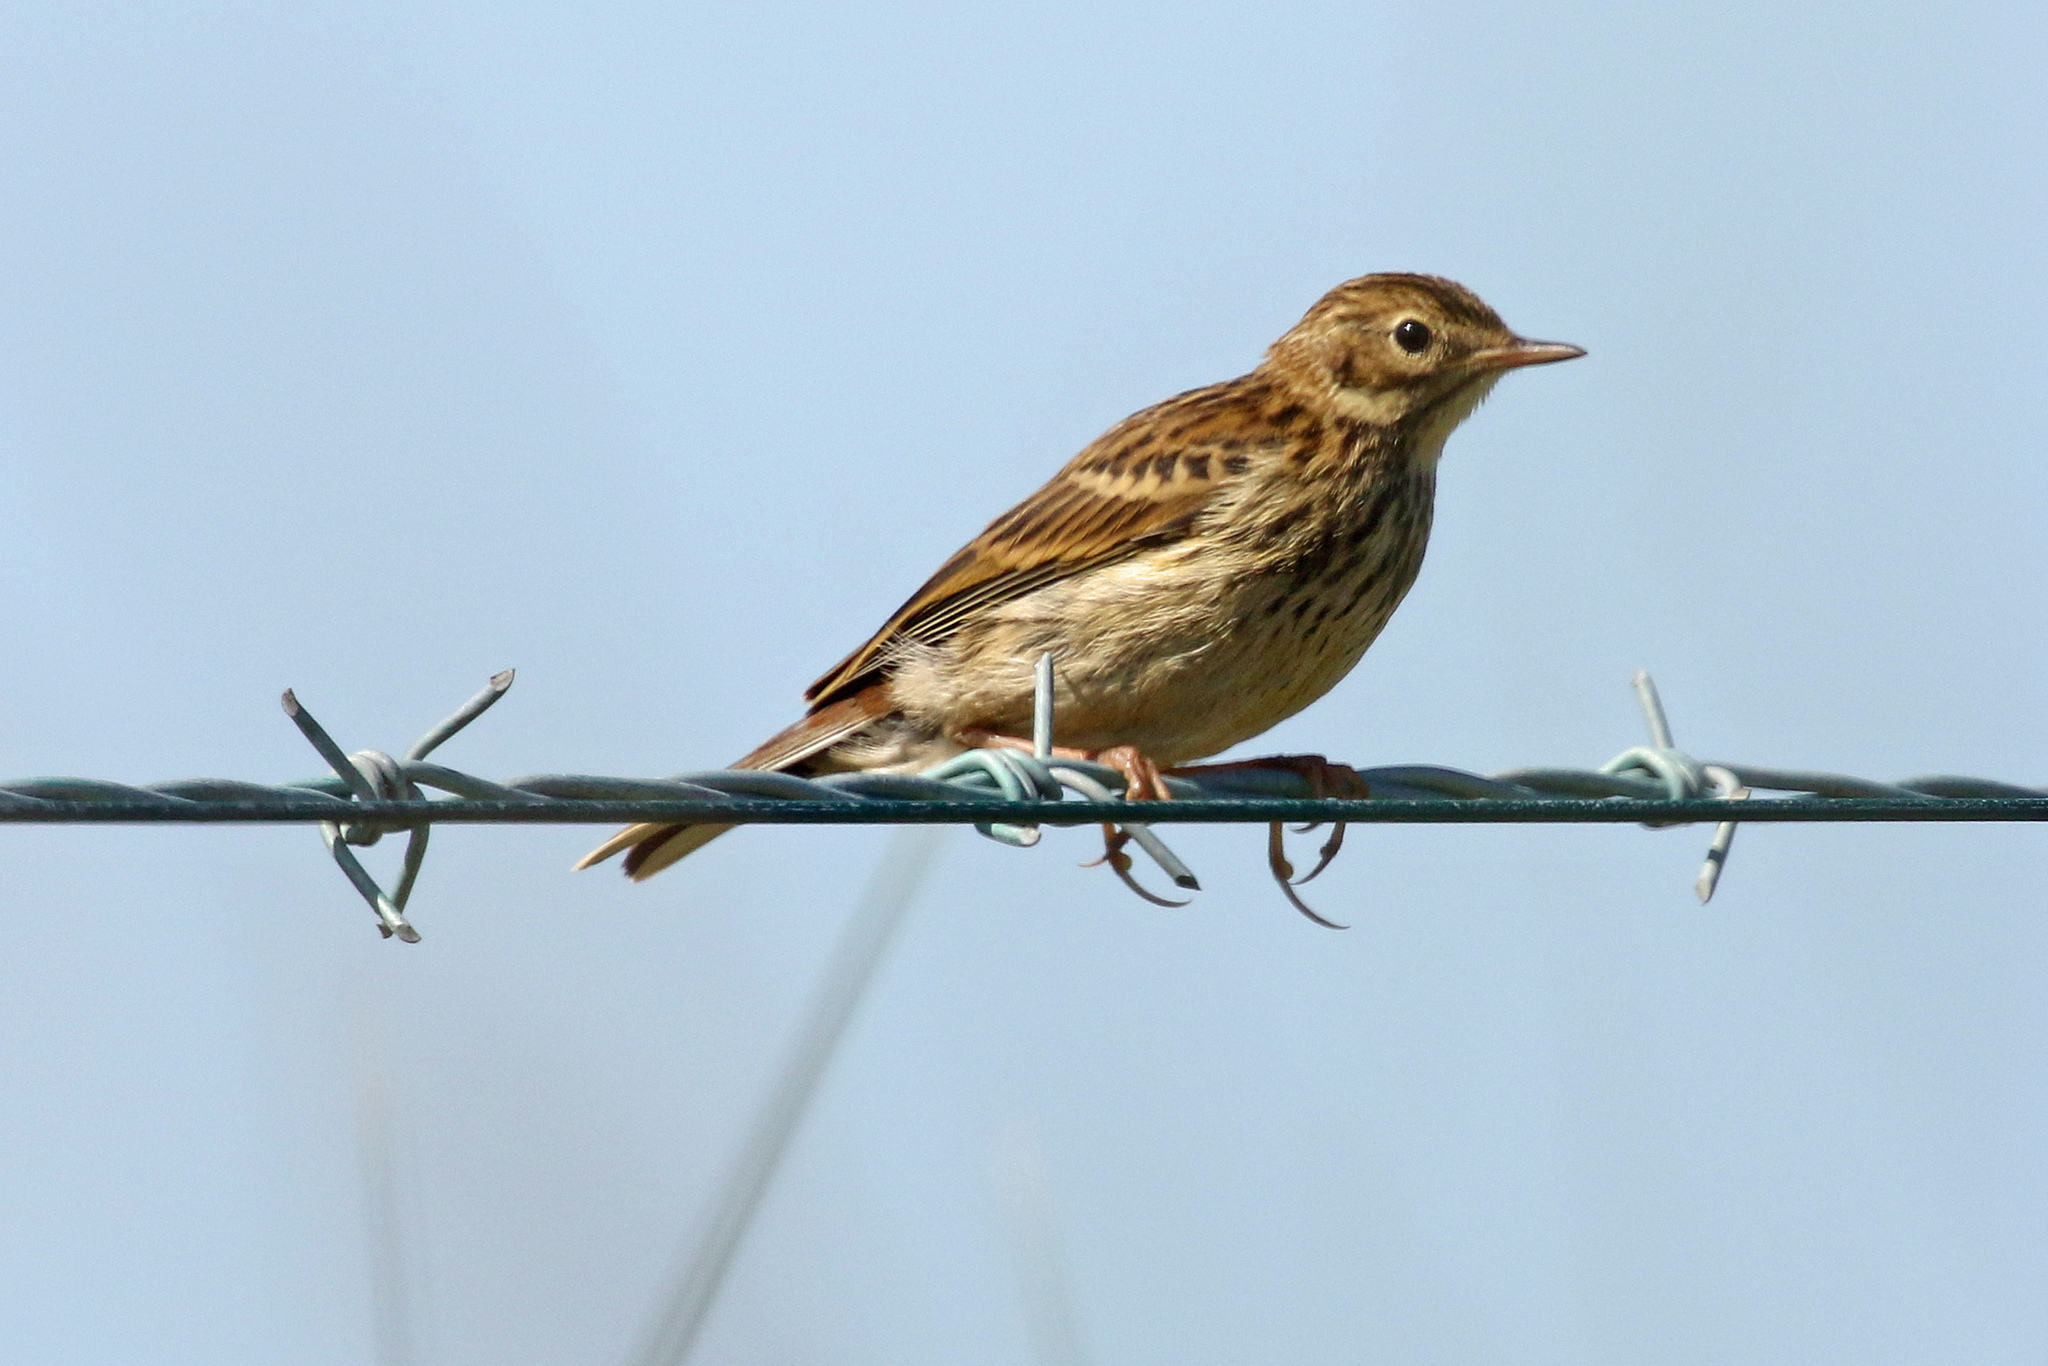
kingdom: Animalia
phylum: Chordata
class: Aves
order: Passeriformes
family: Motacillidae
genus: Anthus
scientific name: Anthus pratensis
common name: Meadow pipit
